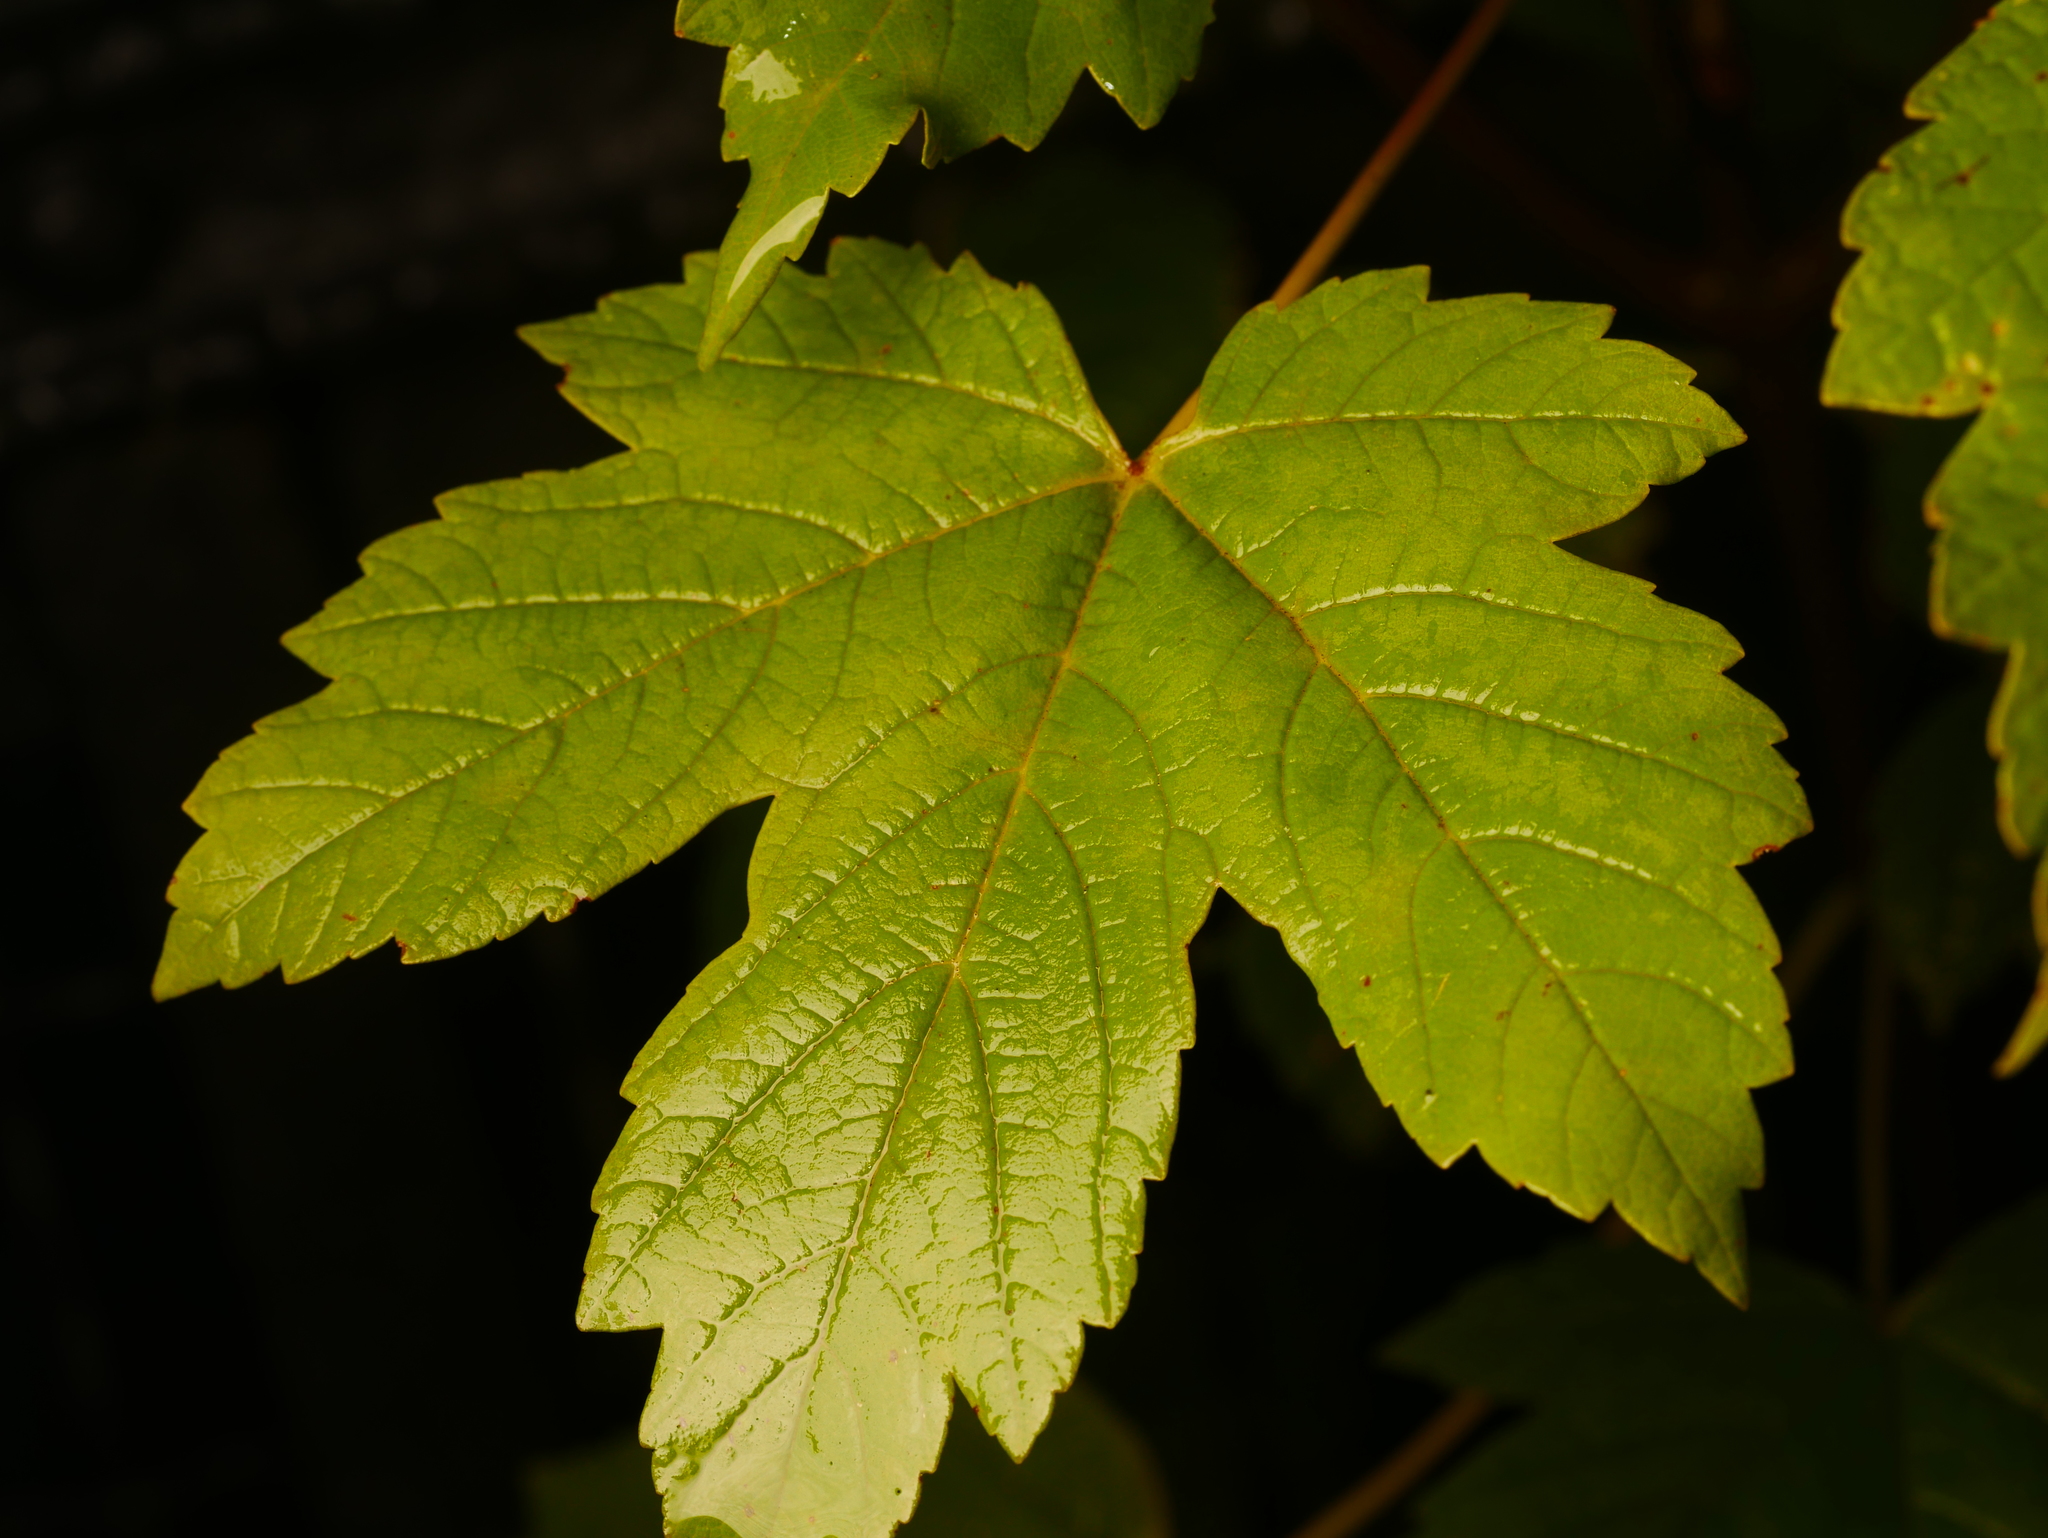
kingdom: Plantae
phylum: Tracheophyta
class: Magnoliopsida
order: Sapindales
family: Sapindaceae
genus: Acer
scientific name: Acer pseudoplatanus
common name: Sycamore
